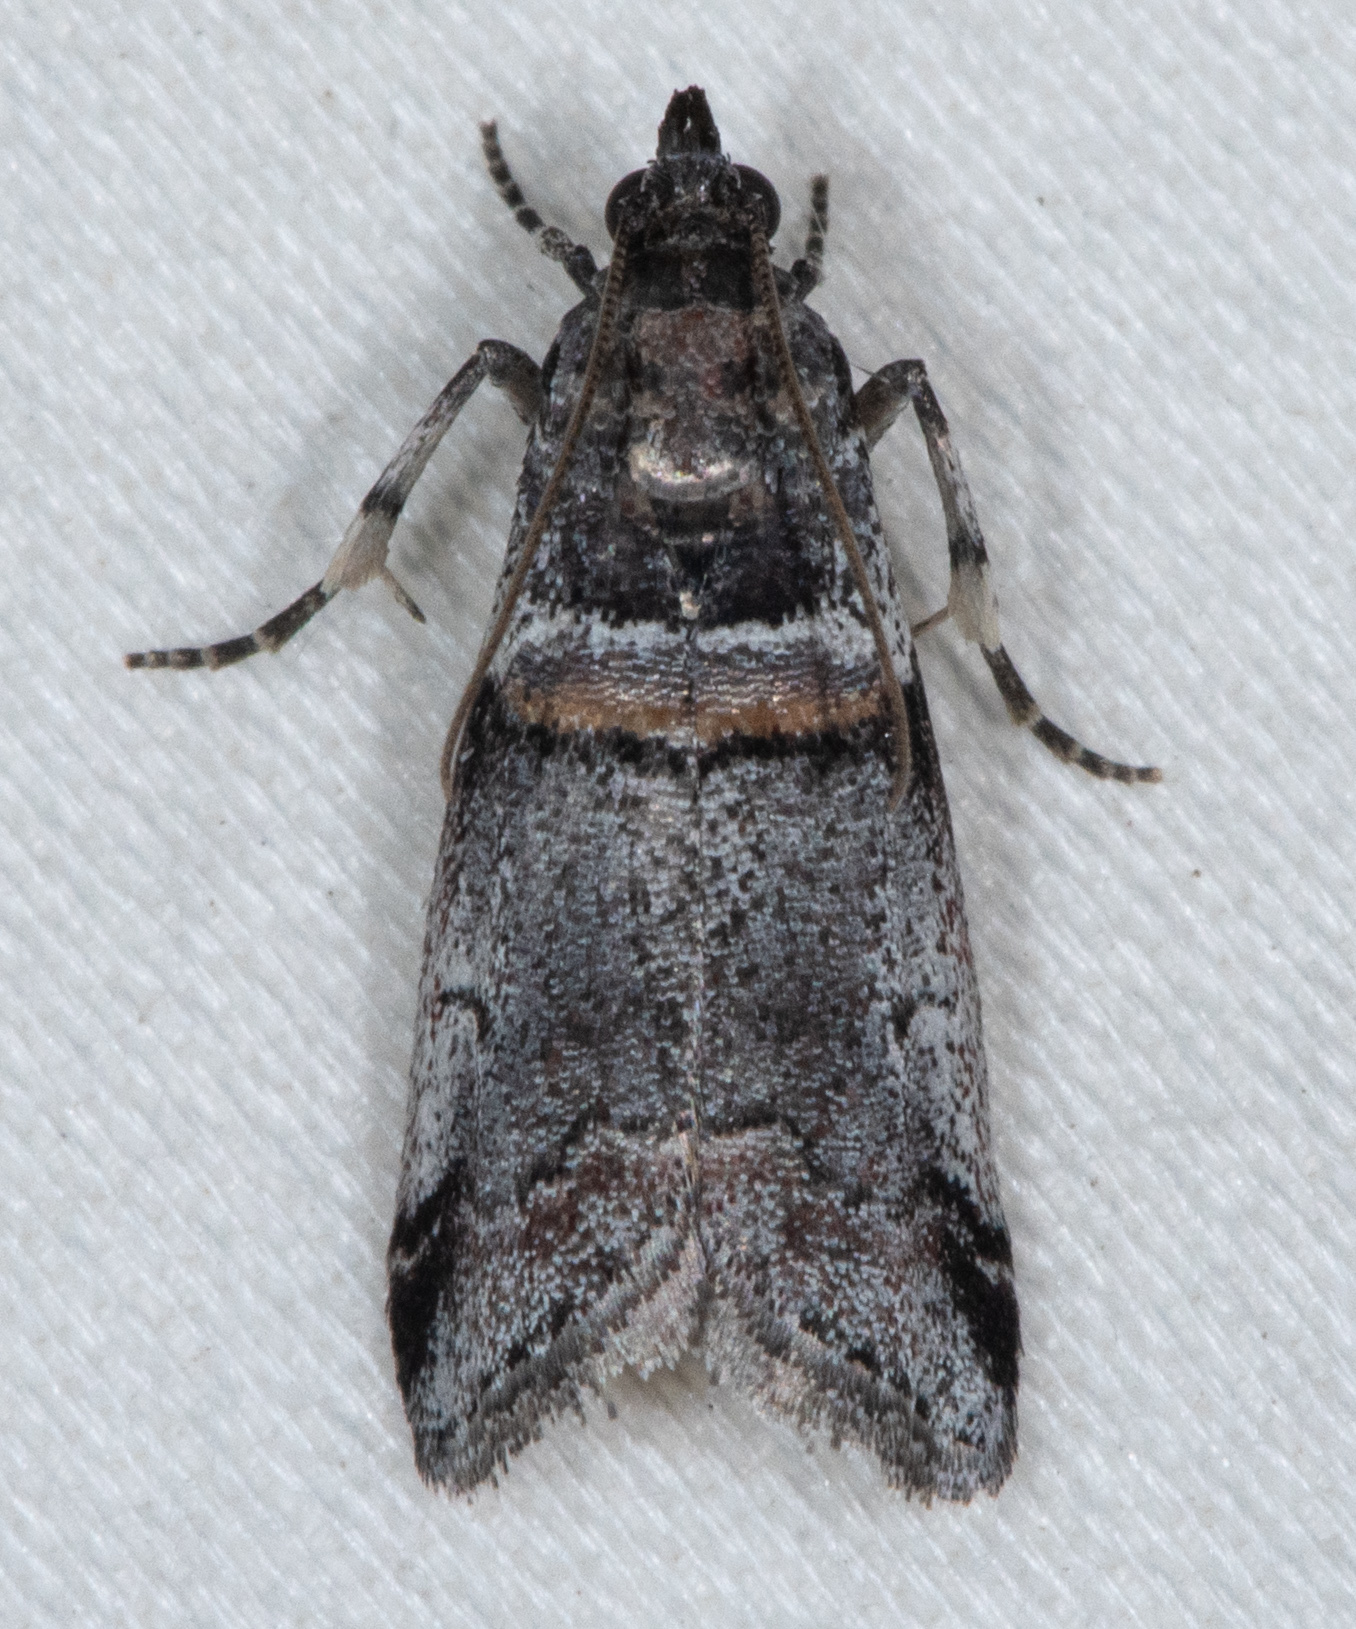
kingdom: Animalia
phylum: Arthropoda
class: Insecta
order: Lepidoptera
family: Pyralidae
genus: Acrobasis
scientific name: Acrobasis tricolorella
